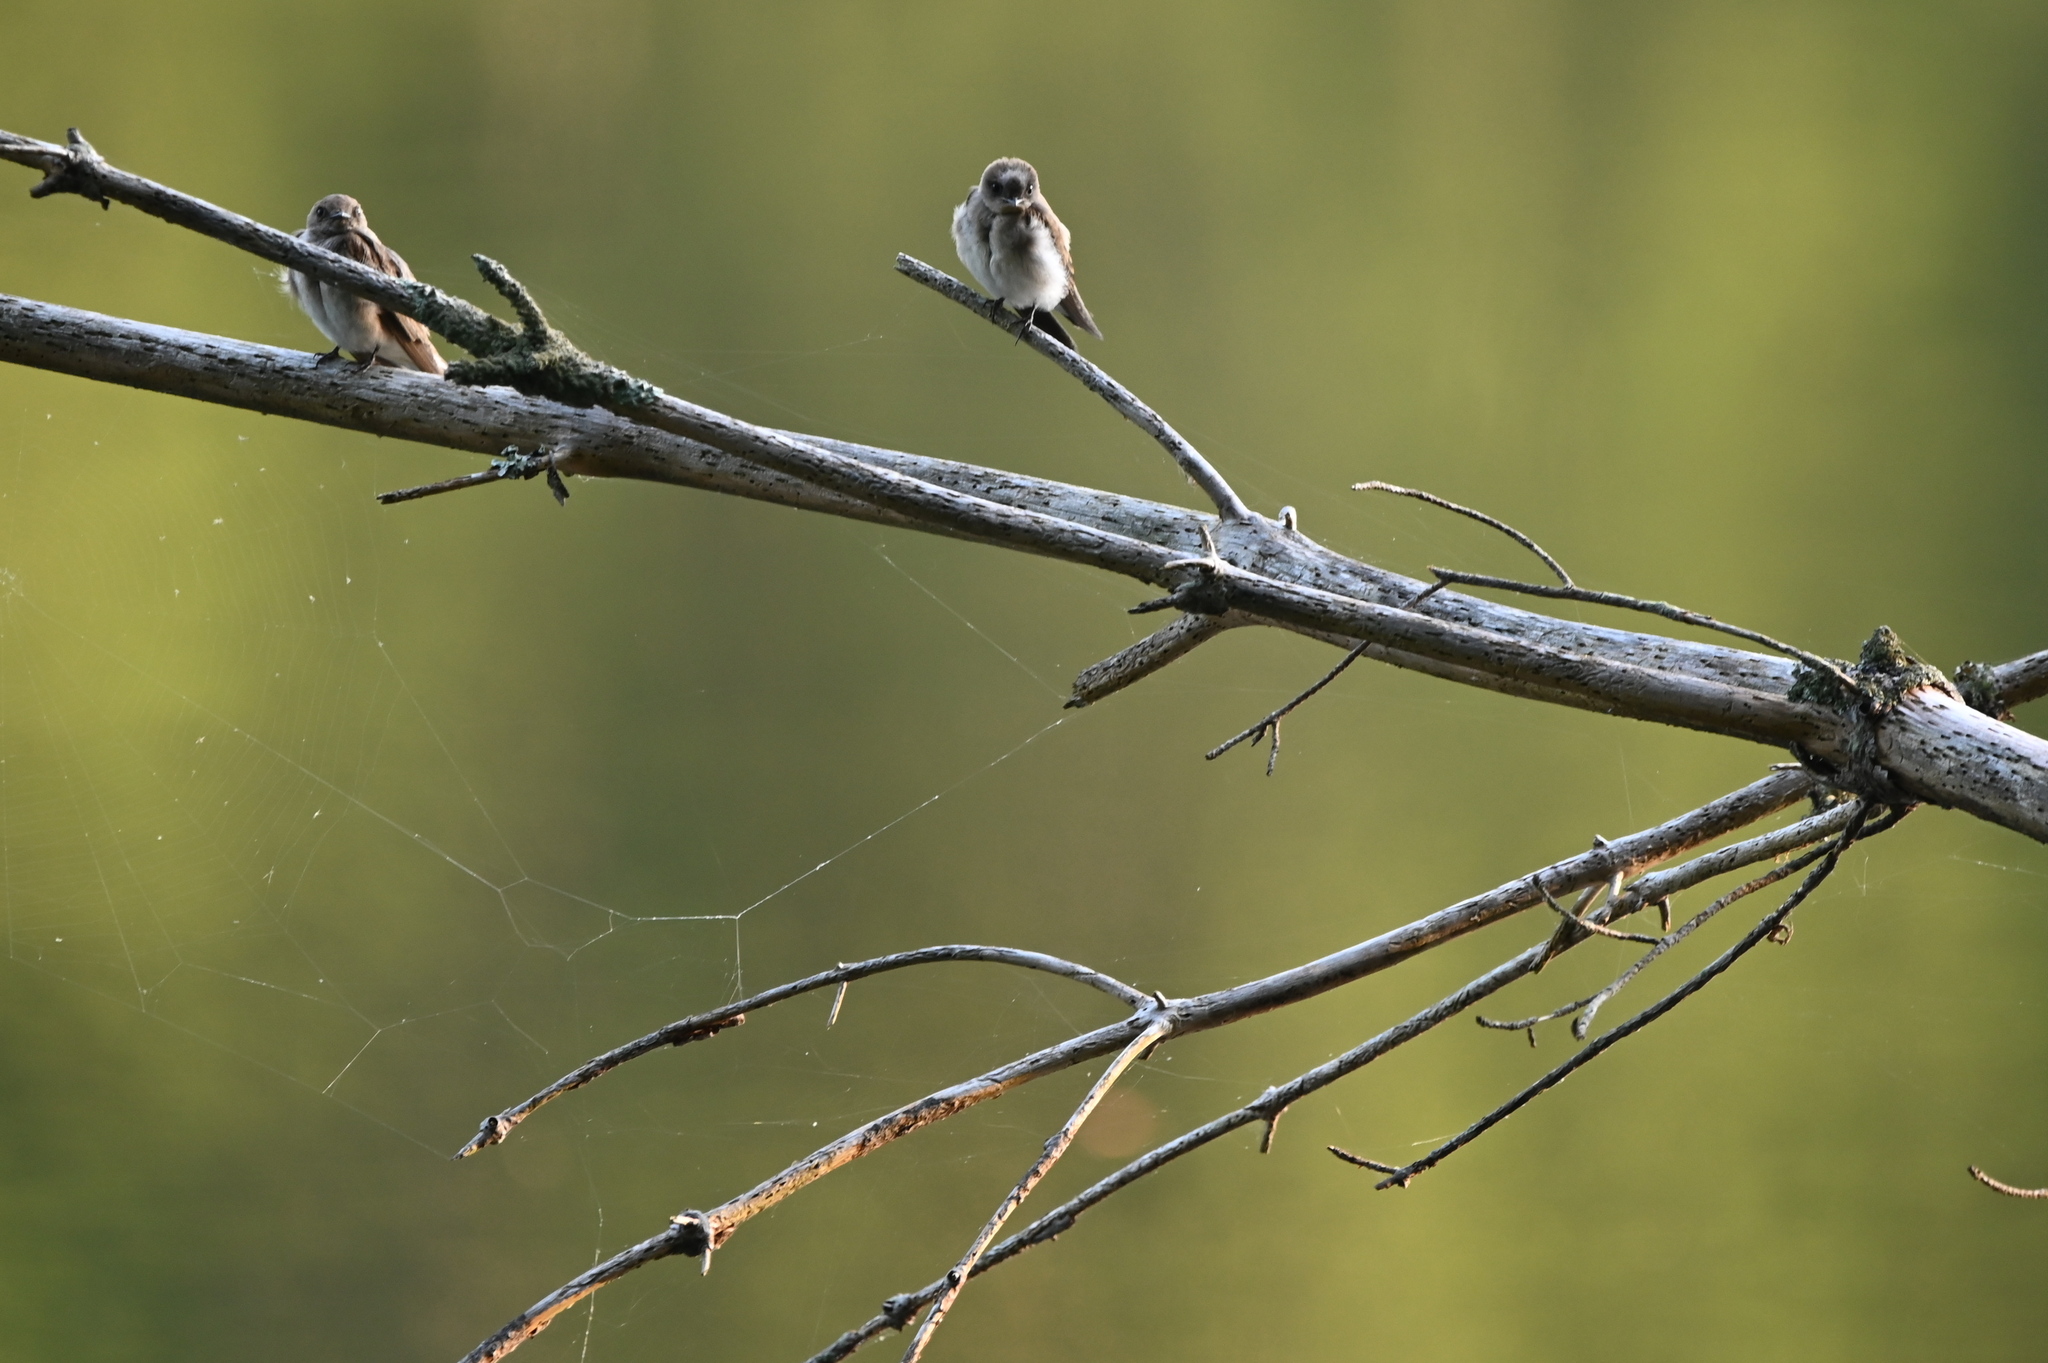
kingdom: Animalia
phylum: Chordata
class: Aves
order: Passeriformes
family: Hirundinidae
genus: Stelgidopteryx
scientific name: Stelgidopteryx serripennis
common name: Northern rough-winged swallow
